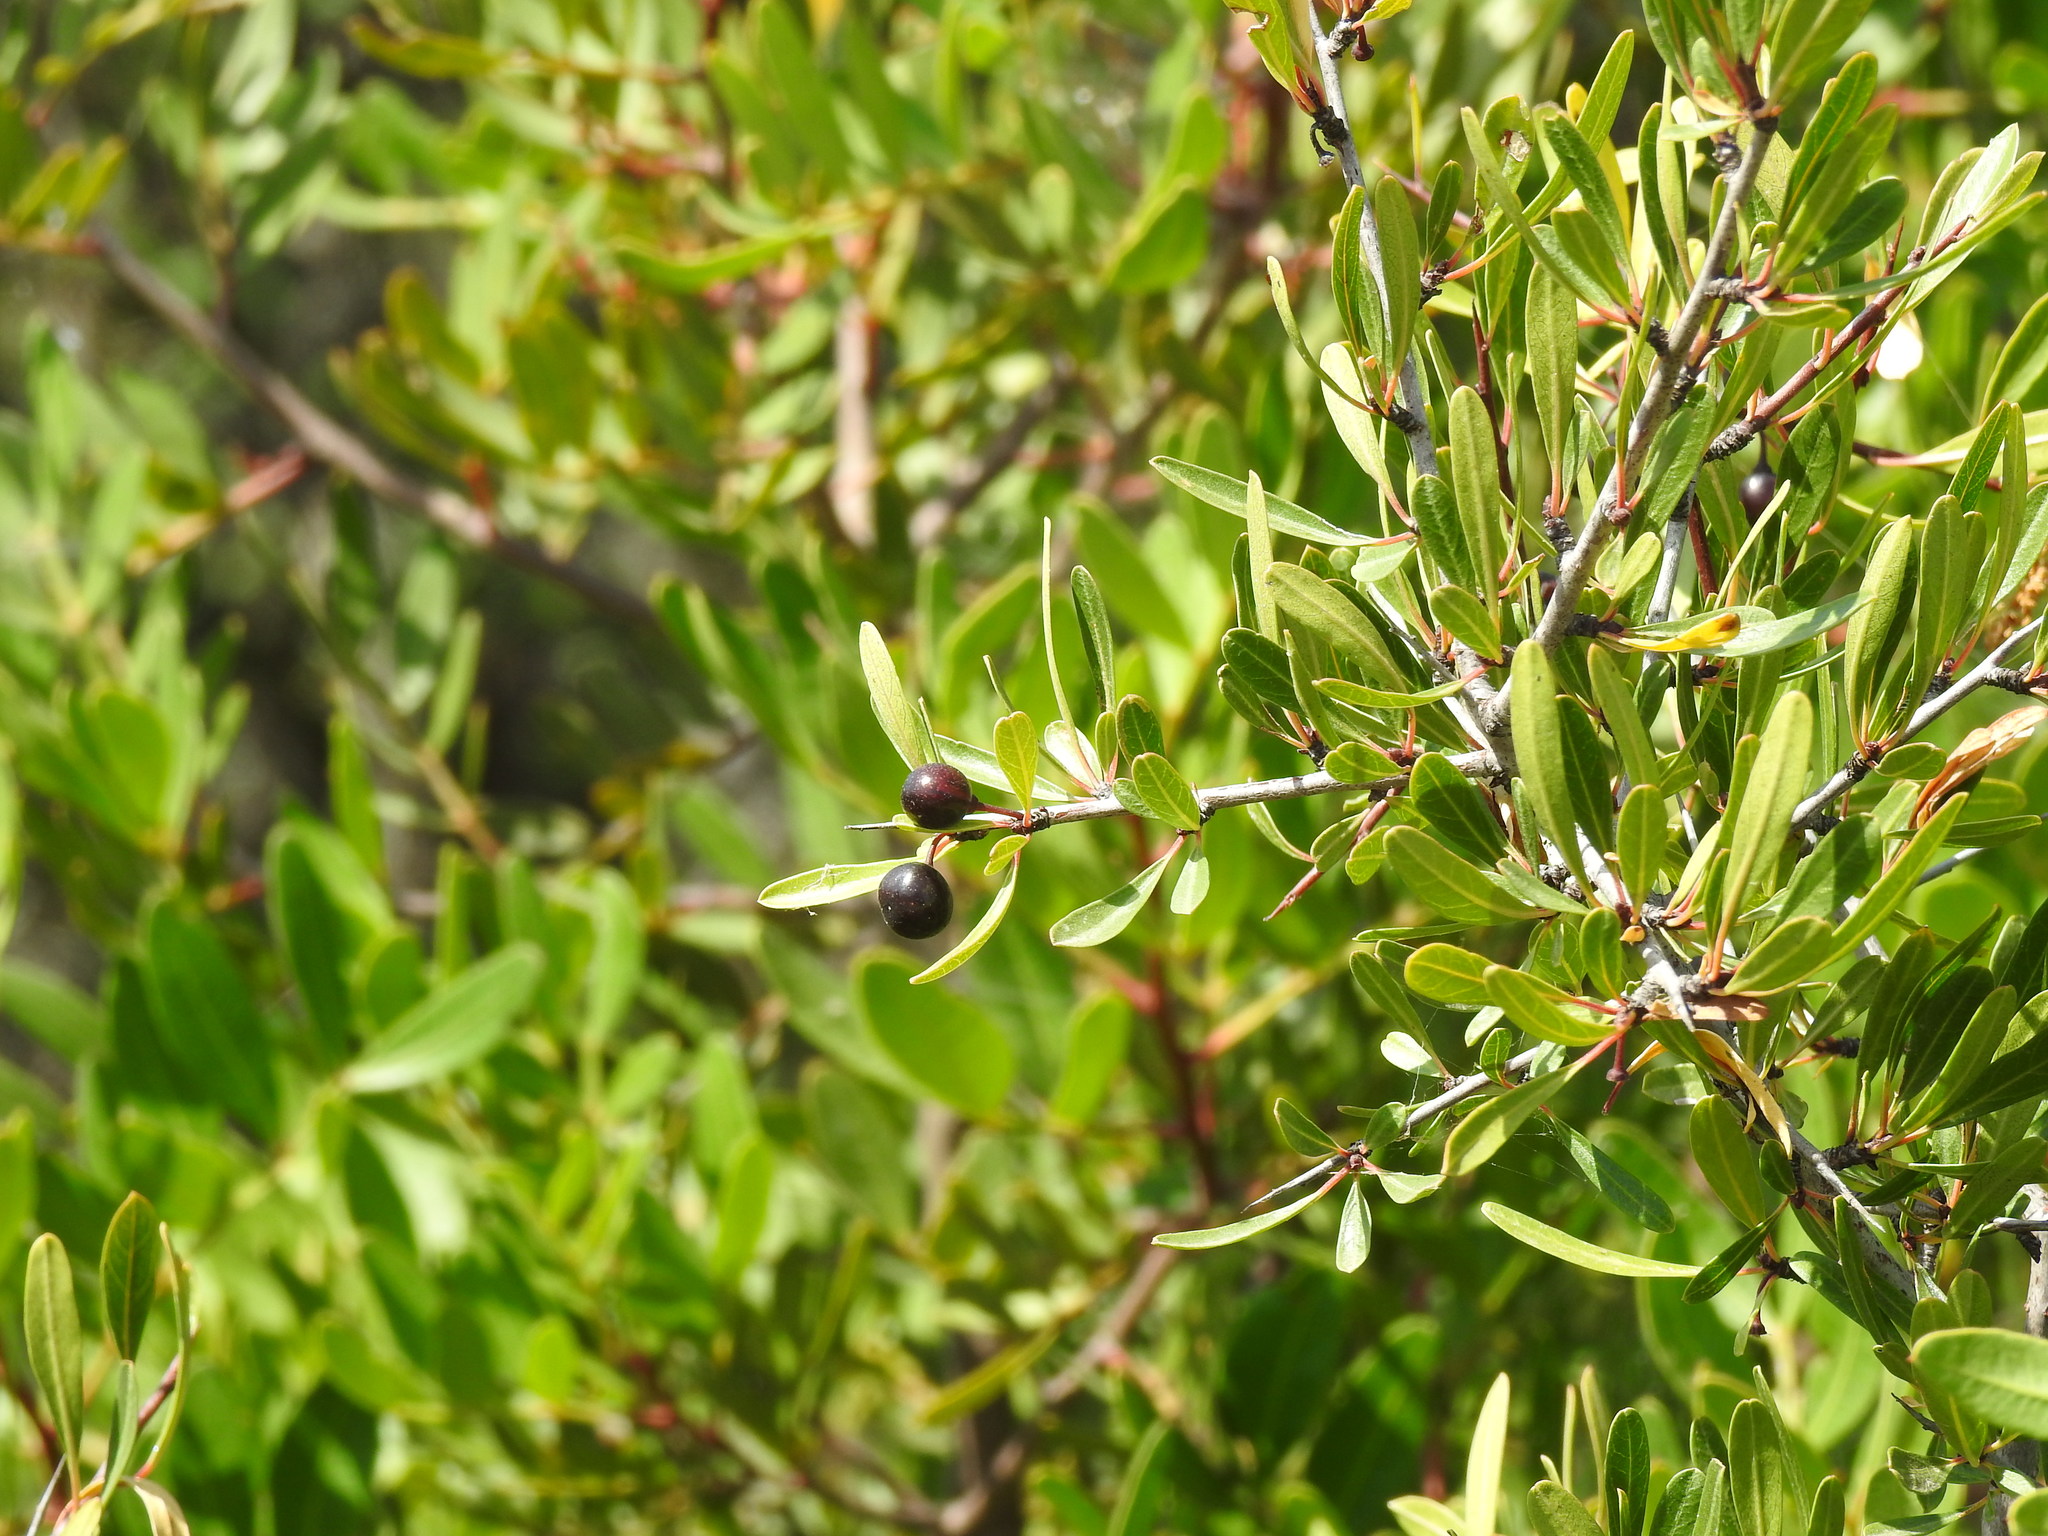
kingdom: Plantae
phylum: Tracheophyta
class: Magnoliopsida
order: Rosales
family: Rhamnaceae
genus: Rhamnus
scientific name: Rhamnus oleoides
